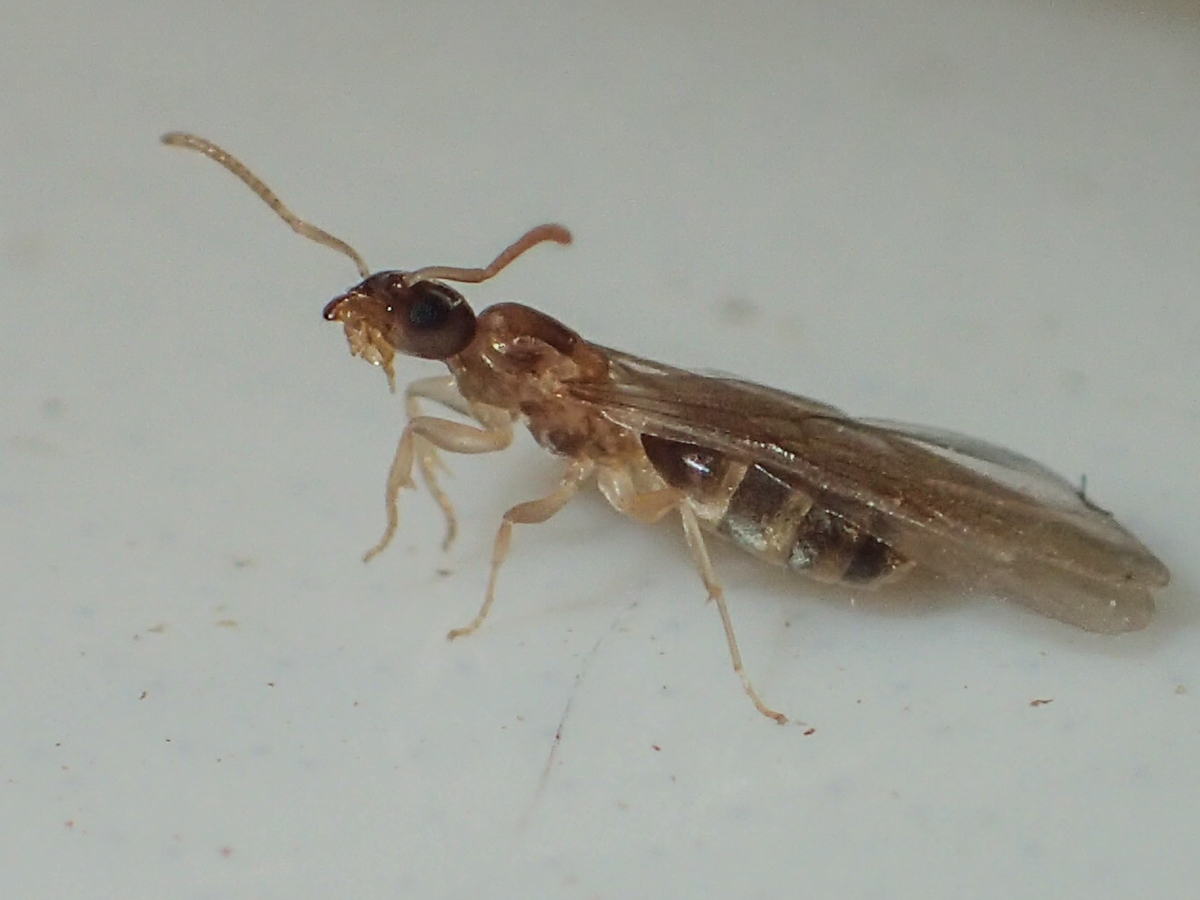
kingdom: Animalia
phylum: Arthropoda
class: Insecta
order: Hymenoptera
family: Formicidae
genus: Tapinoma
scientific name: Tapinoma melanocephalum
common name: Ghost ant
